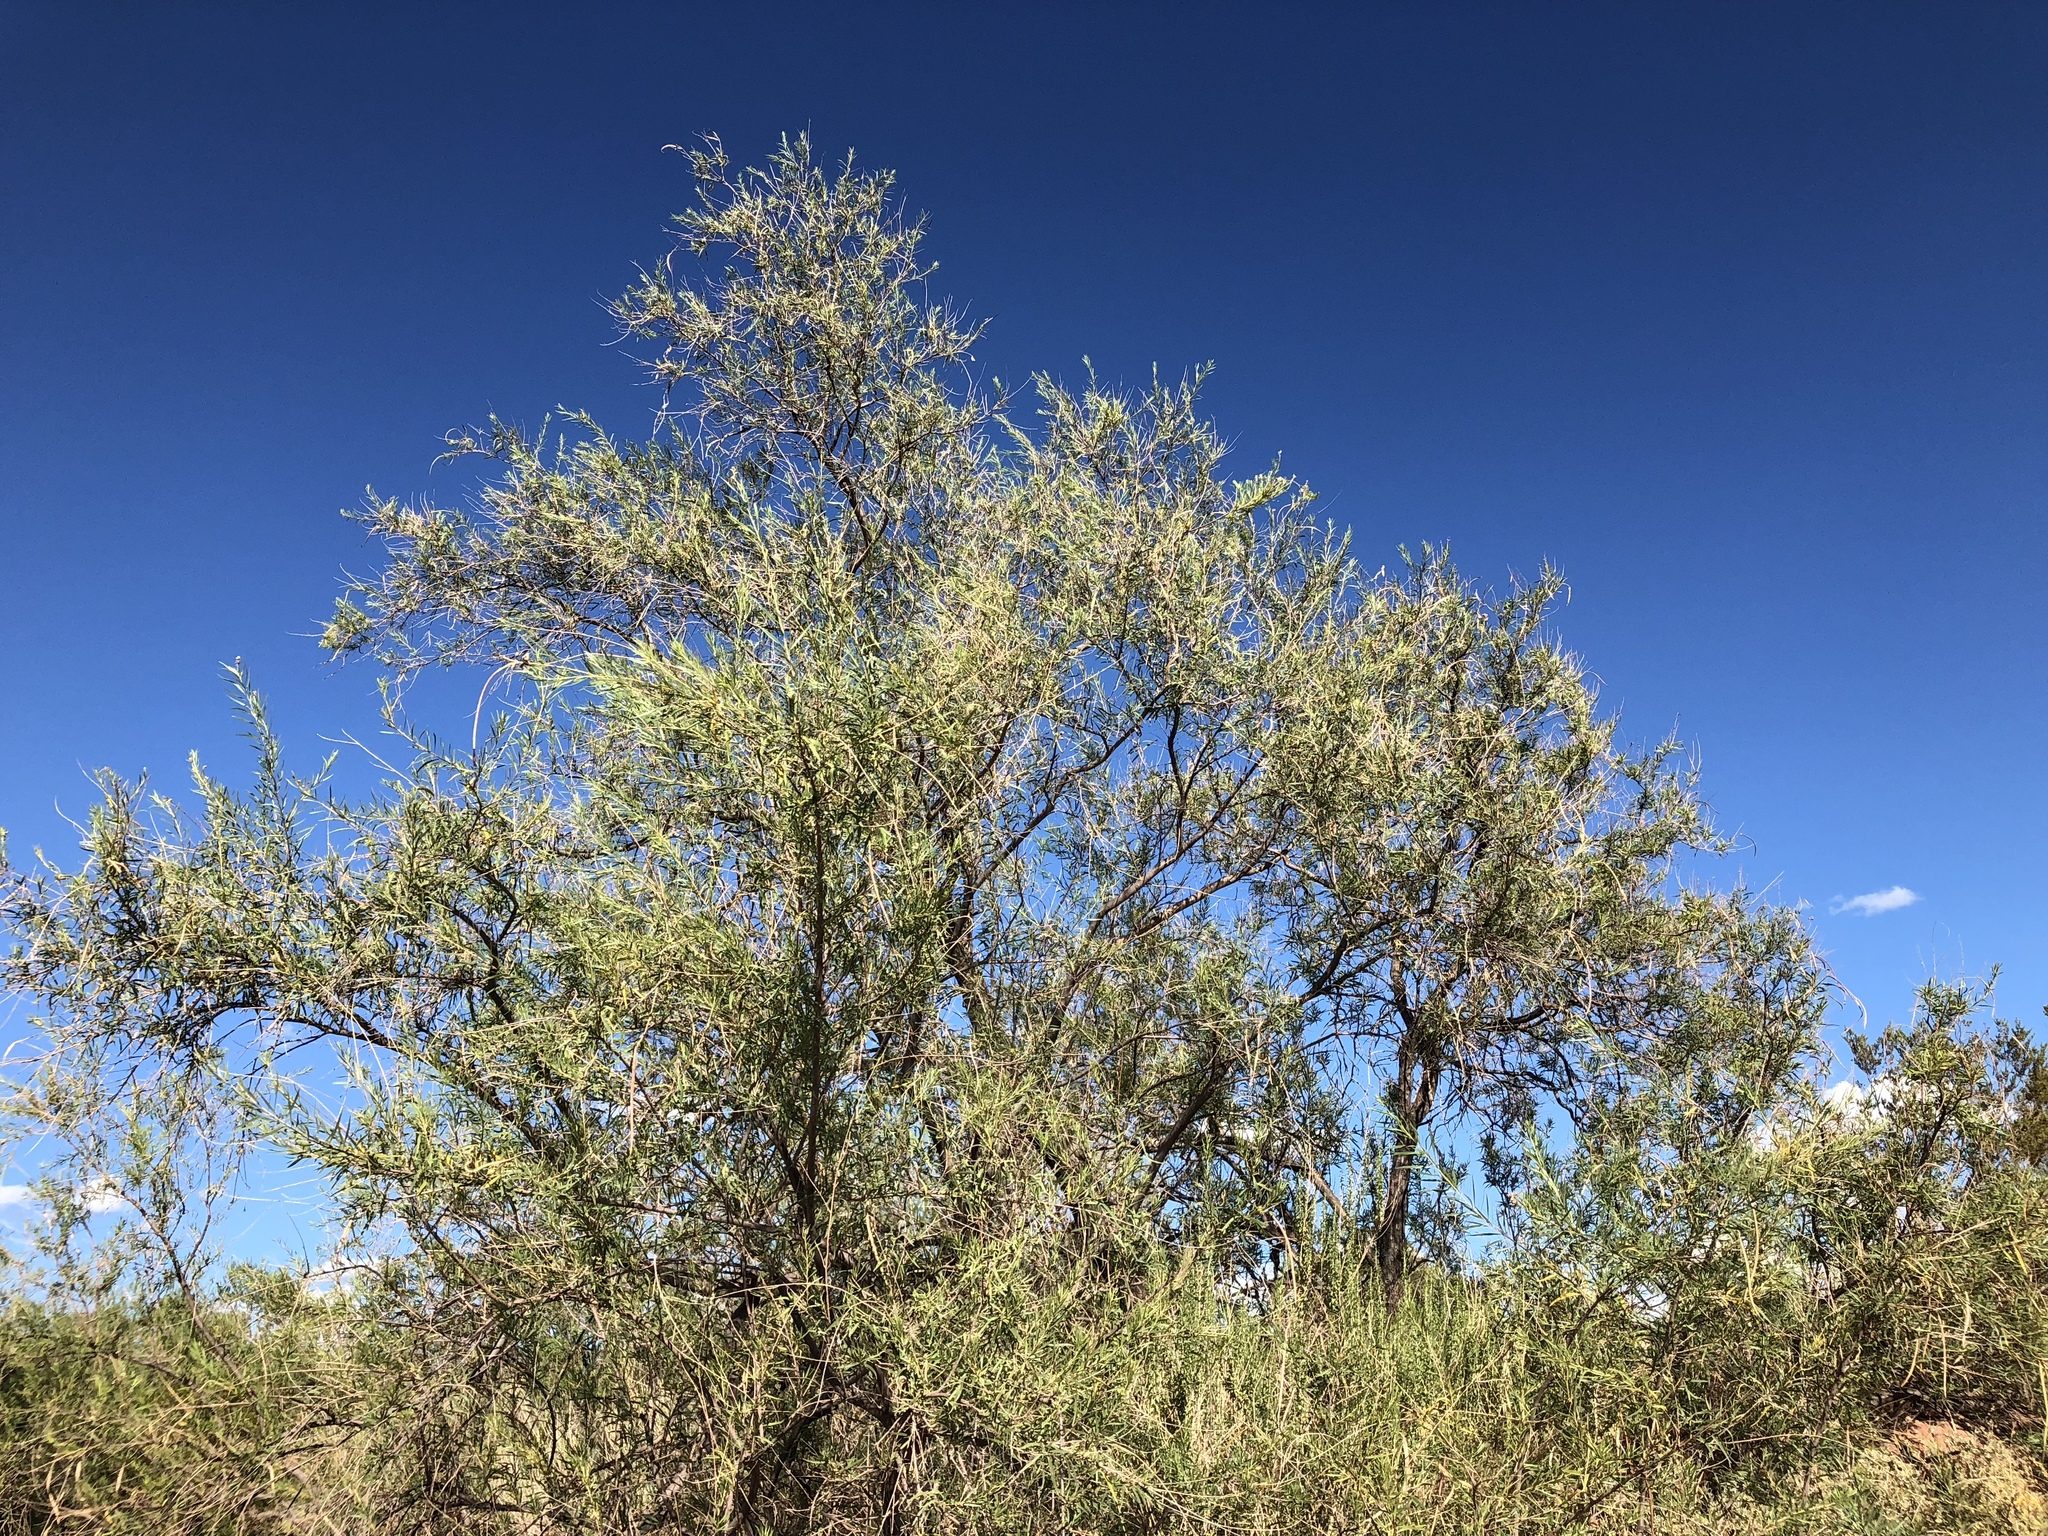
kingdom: Plantae
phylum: Tracheophyta
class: Magnoliopsida
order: Lamiales
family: Bignoniaceae
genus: Chilopsis
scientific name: Chilopsis linearis
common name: Desert-willow
